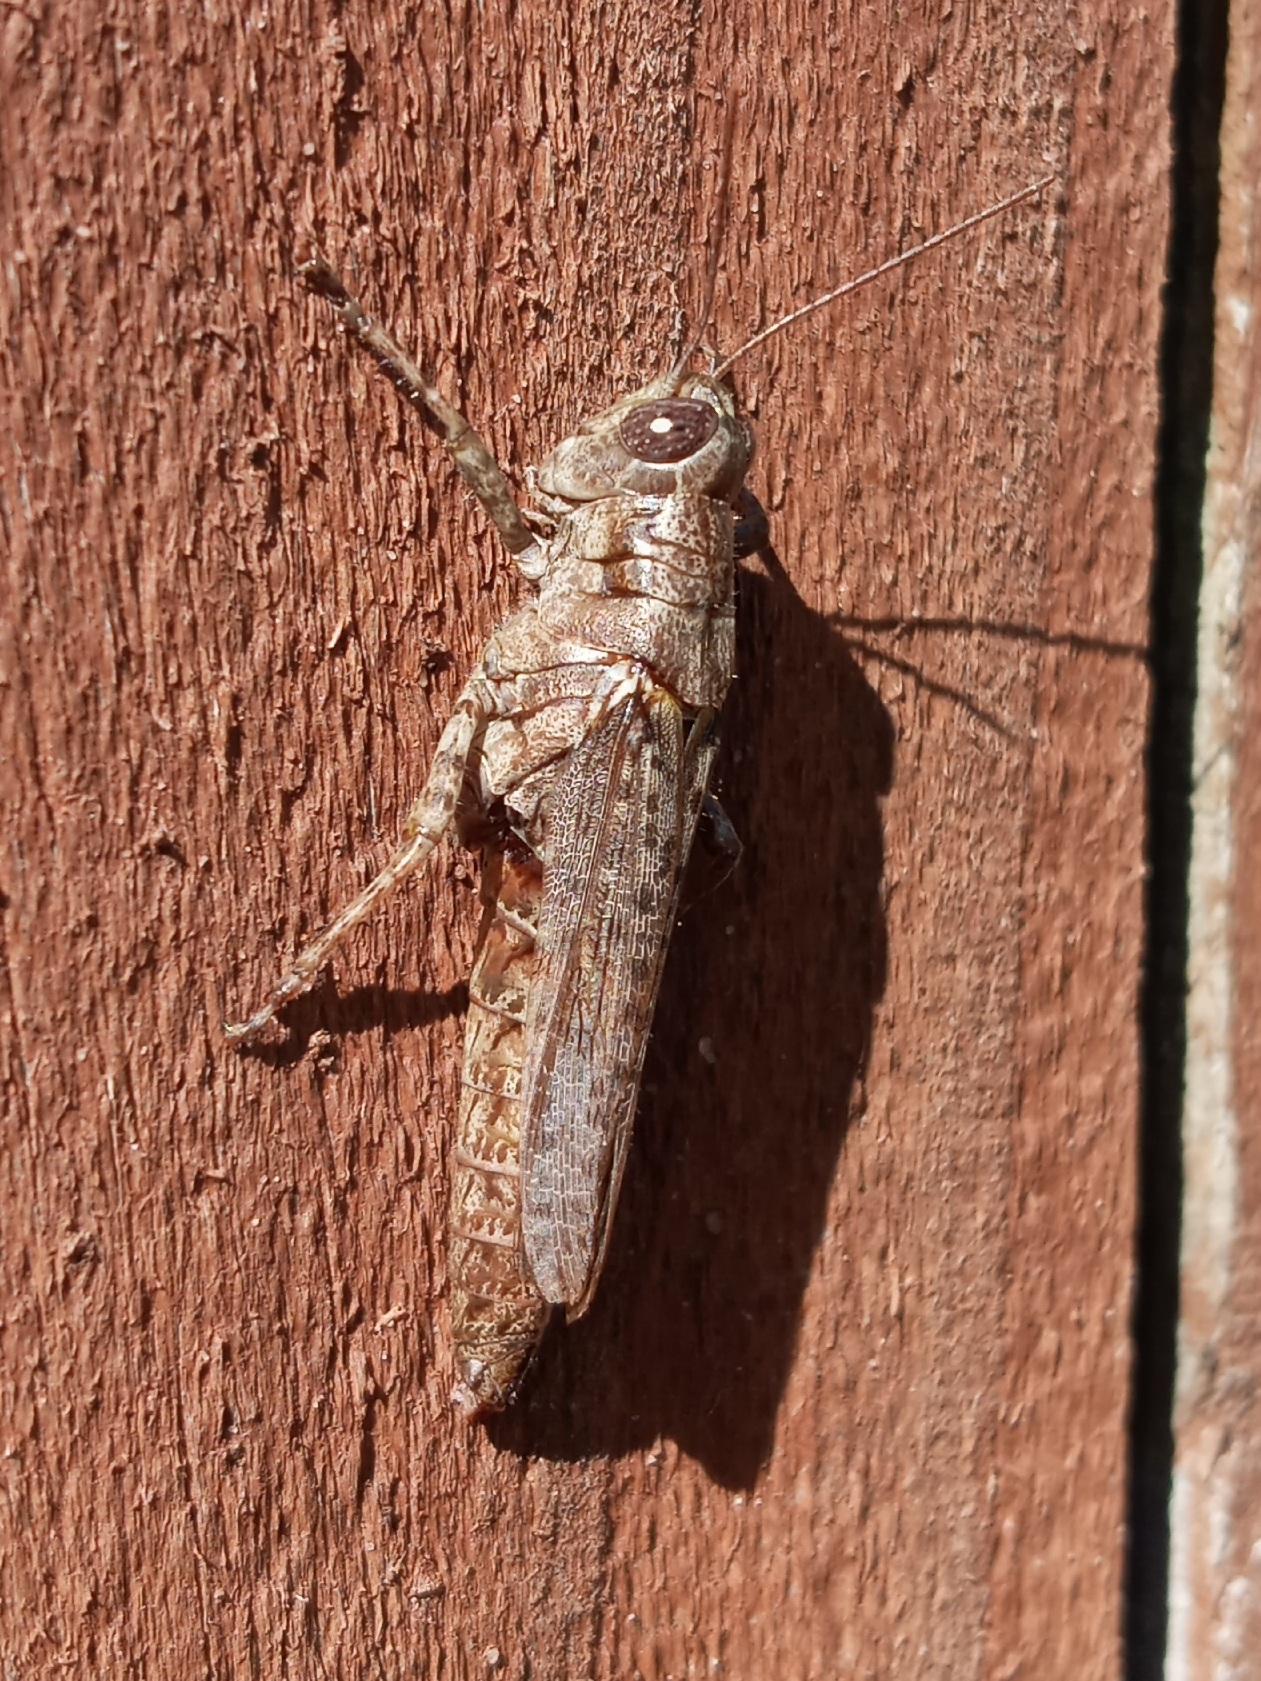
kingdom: Animalia
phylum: Arthropoda
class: Insecta
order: Orthoptera
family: Acrididae
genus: Melanoplus
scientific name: Melanoplus punctulatus
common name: Pine-tree spur-throat grasshopper
